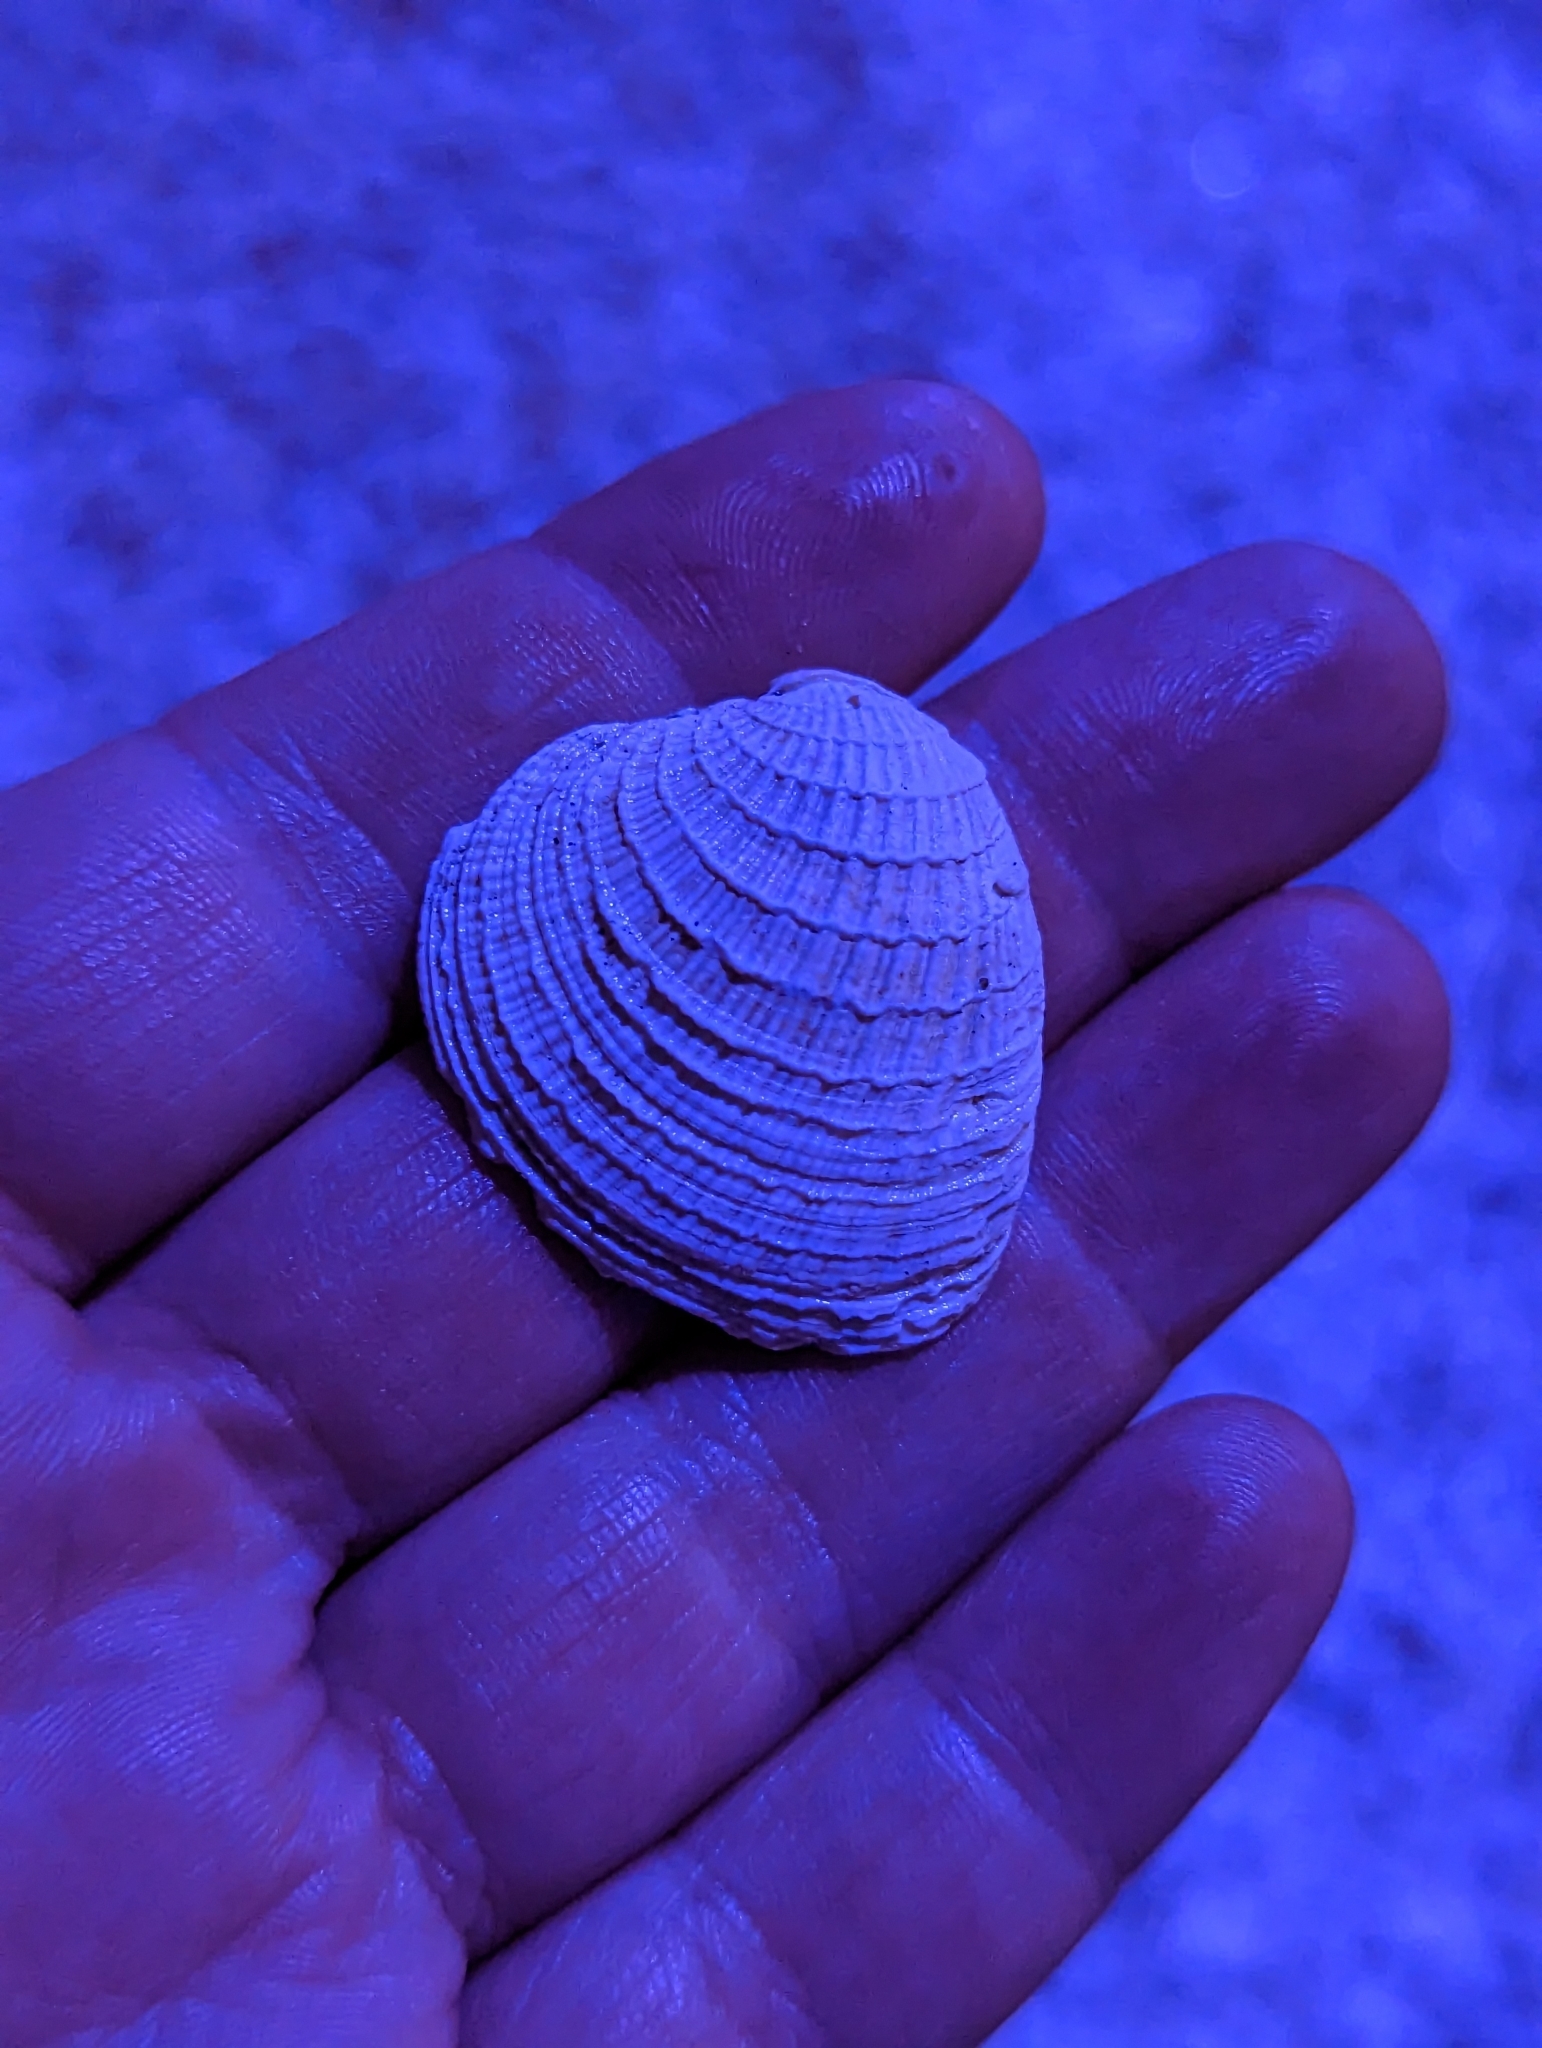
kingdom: Animalia
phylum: Mollusca
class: Bivalvia
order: Venerida
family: Veneridae
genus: Chione
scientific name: Chione elevata
